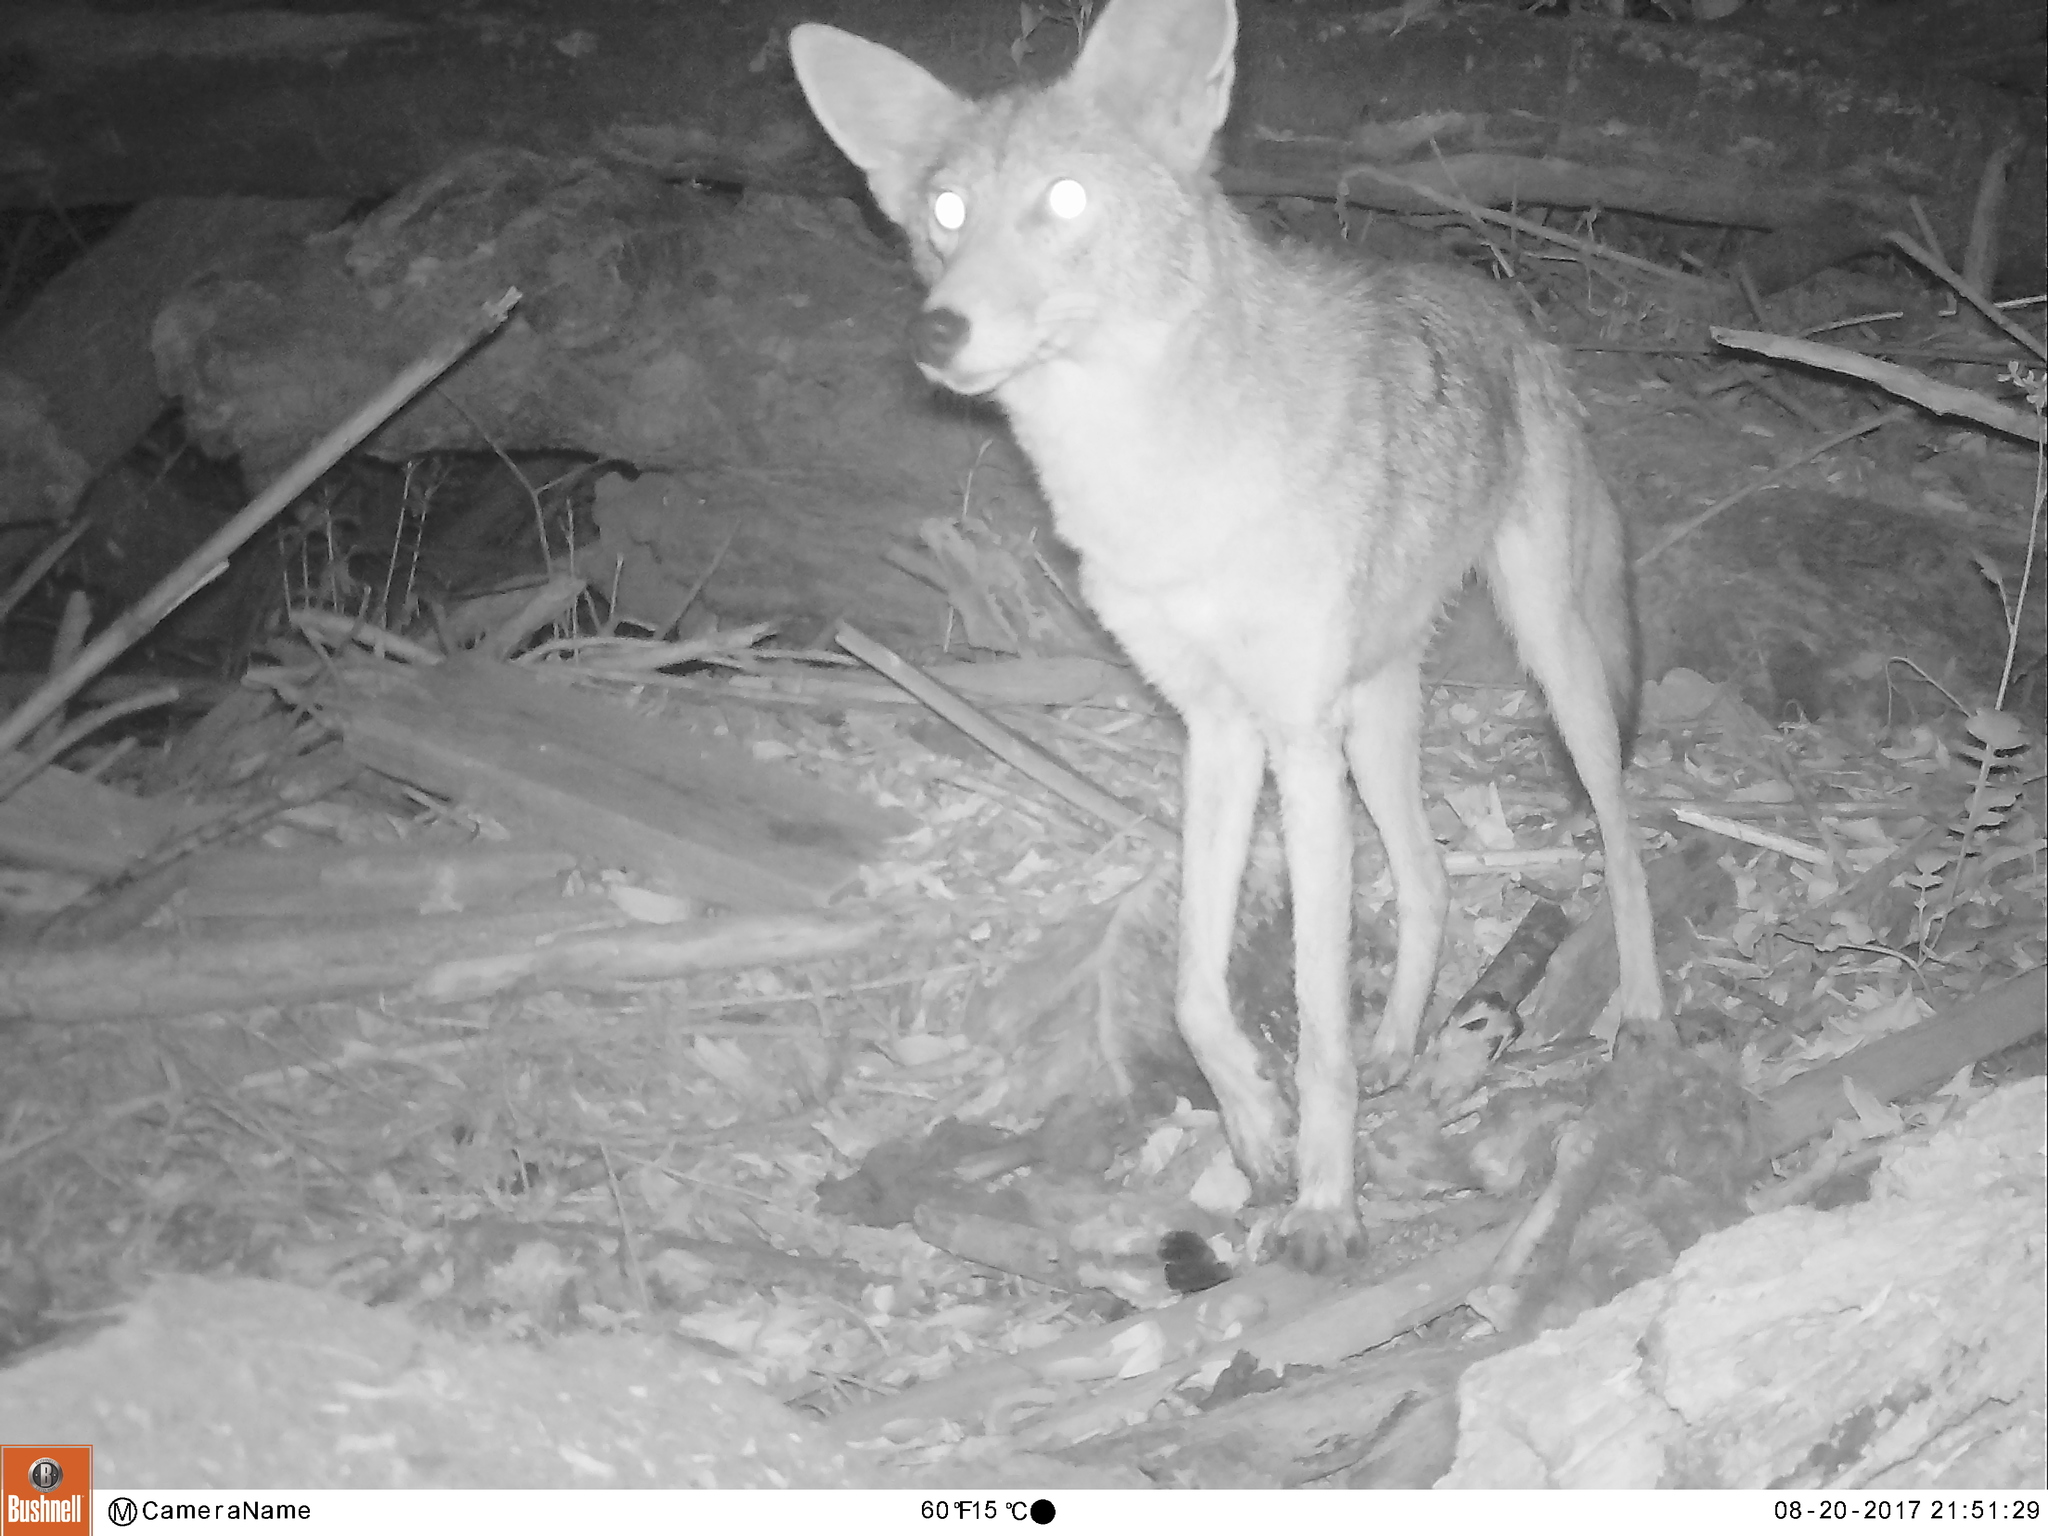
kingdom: Animalia
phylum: Chordata
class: Mammalia
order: Carnivora
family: Canidae
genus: Canis
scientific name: Canis latrans
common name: Coyote
